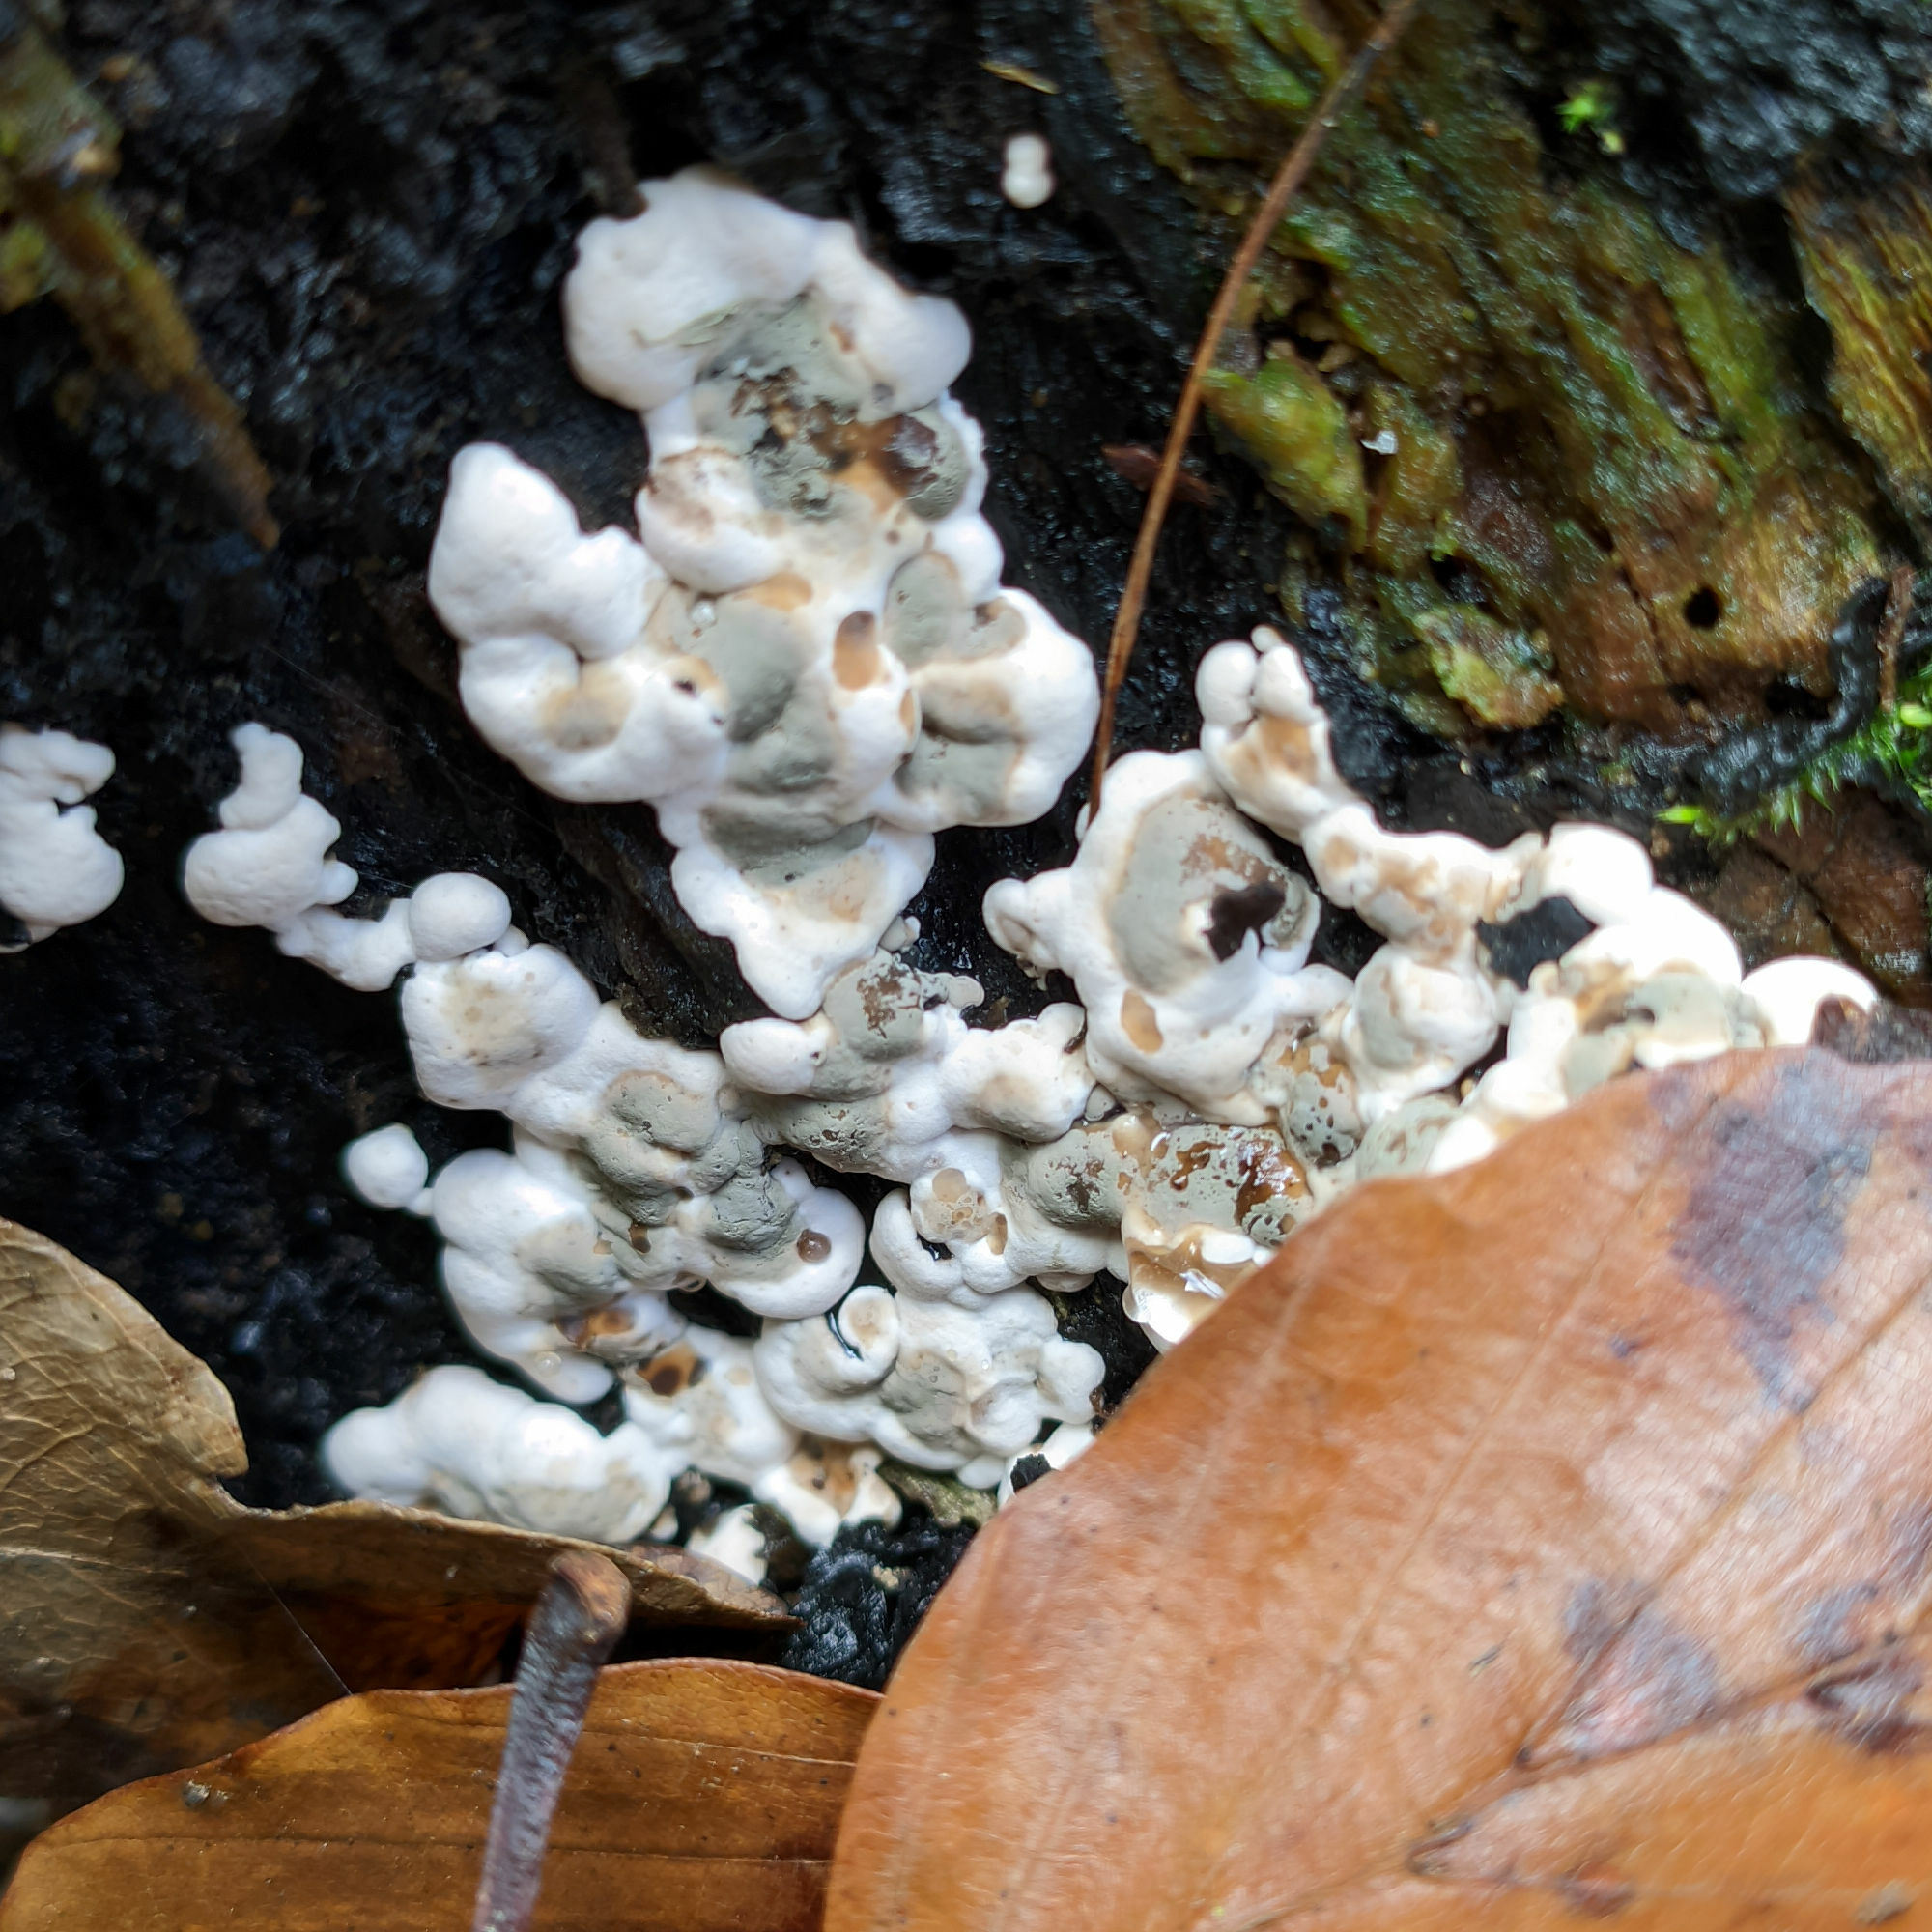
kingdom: Fungi
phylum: Ascomycota
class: Sordariomycetes
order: Xylariales
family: Xylariaceae
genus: Kretzschmaria
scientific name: Kretzschmaria deusta
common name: Brittle cinder
